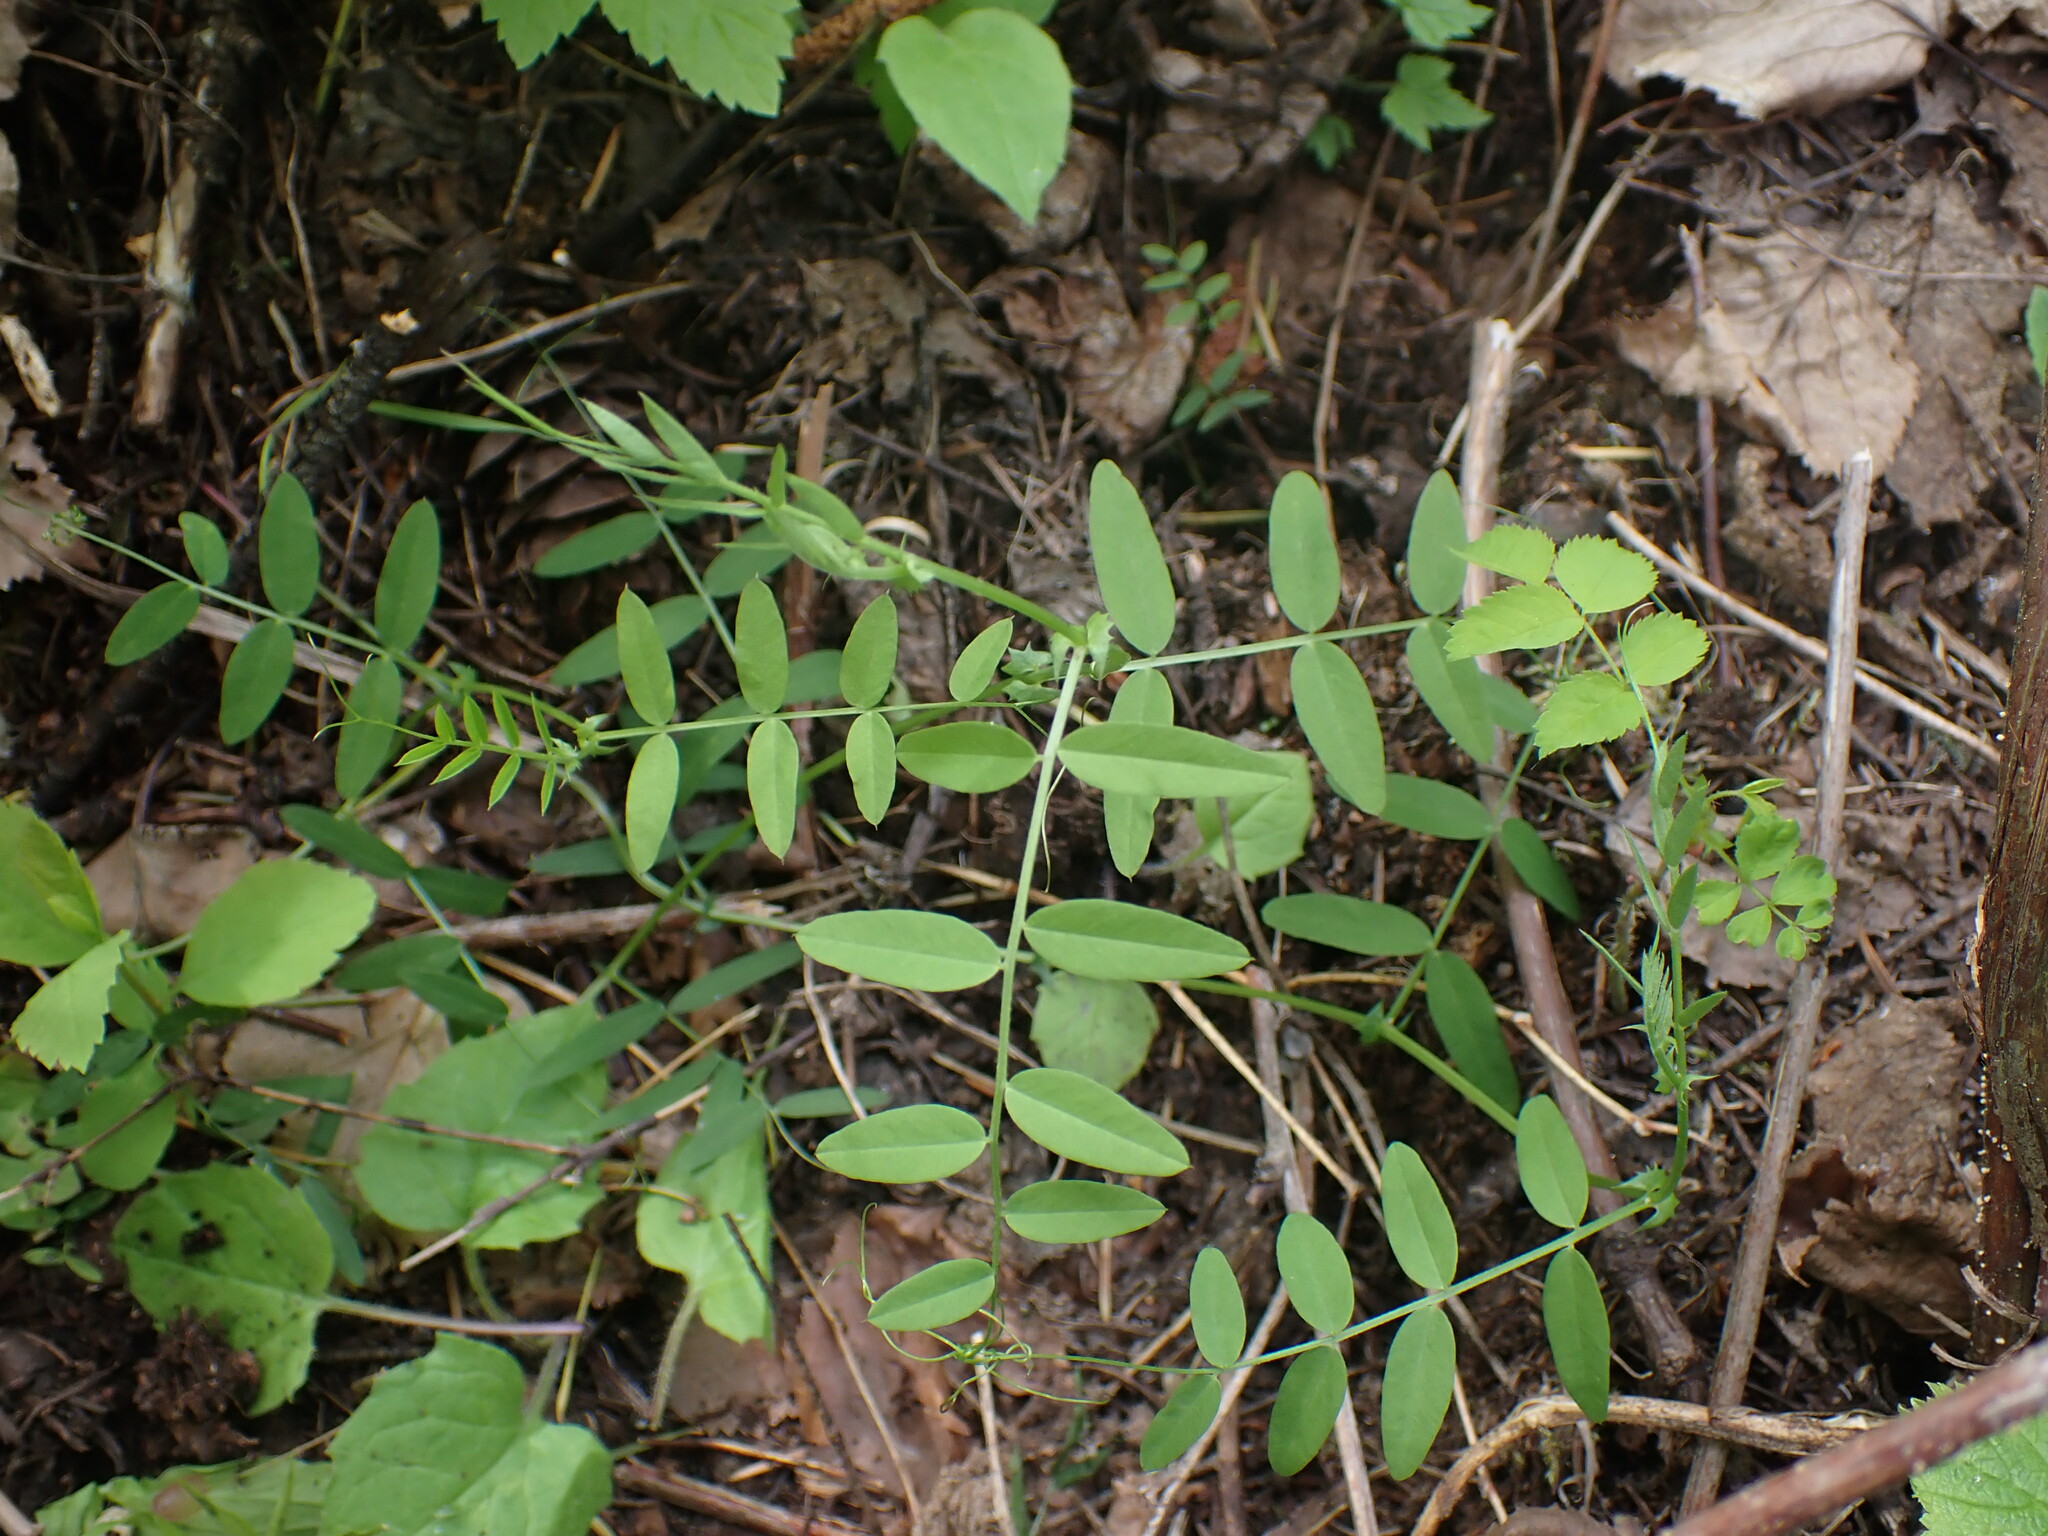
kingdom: Plantae
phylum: Tracheophyta
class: Magnoliopsida
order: Fabales
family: Fabaceae
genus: Vicia
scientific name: Vicia americana
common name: American vetch
